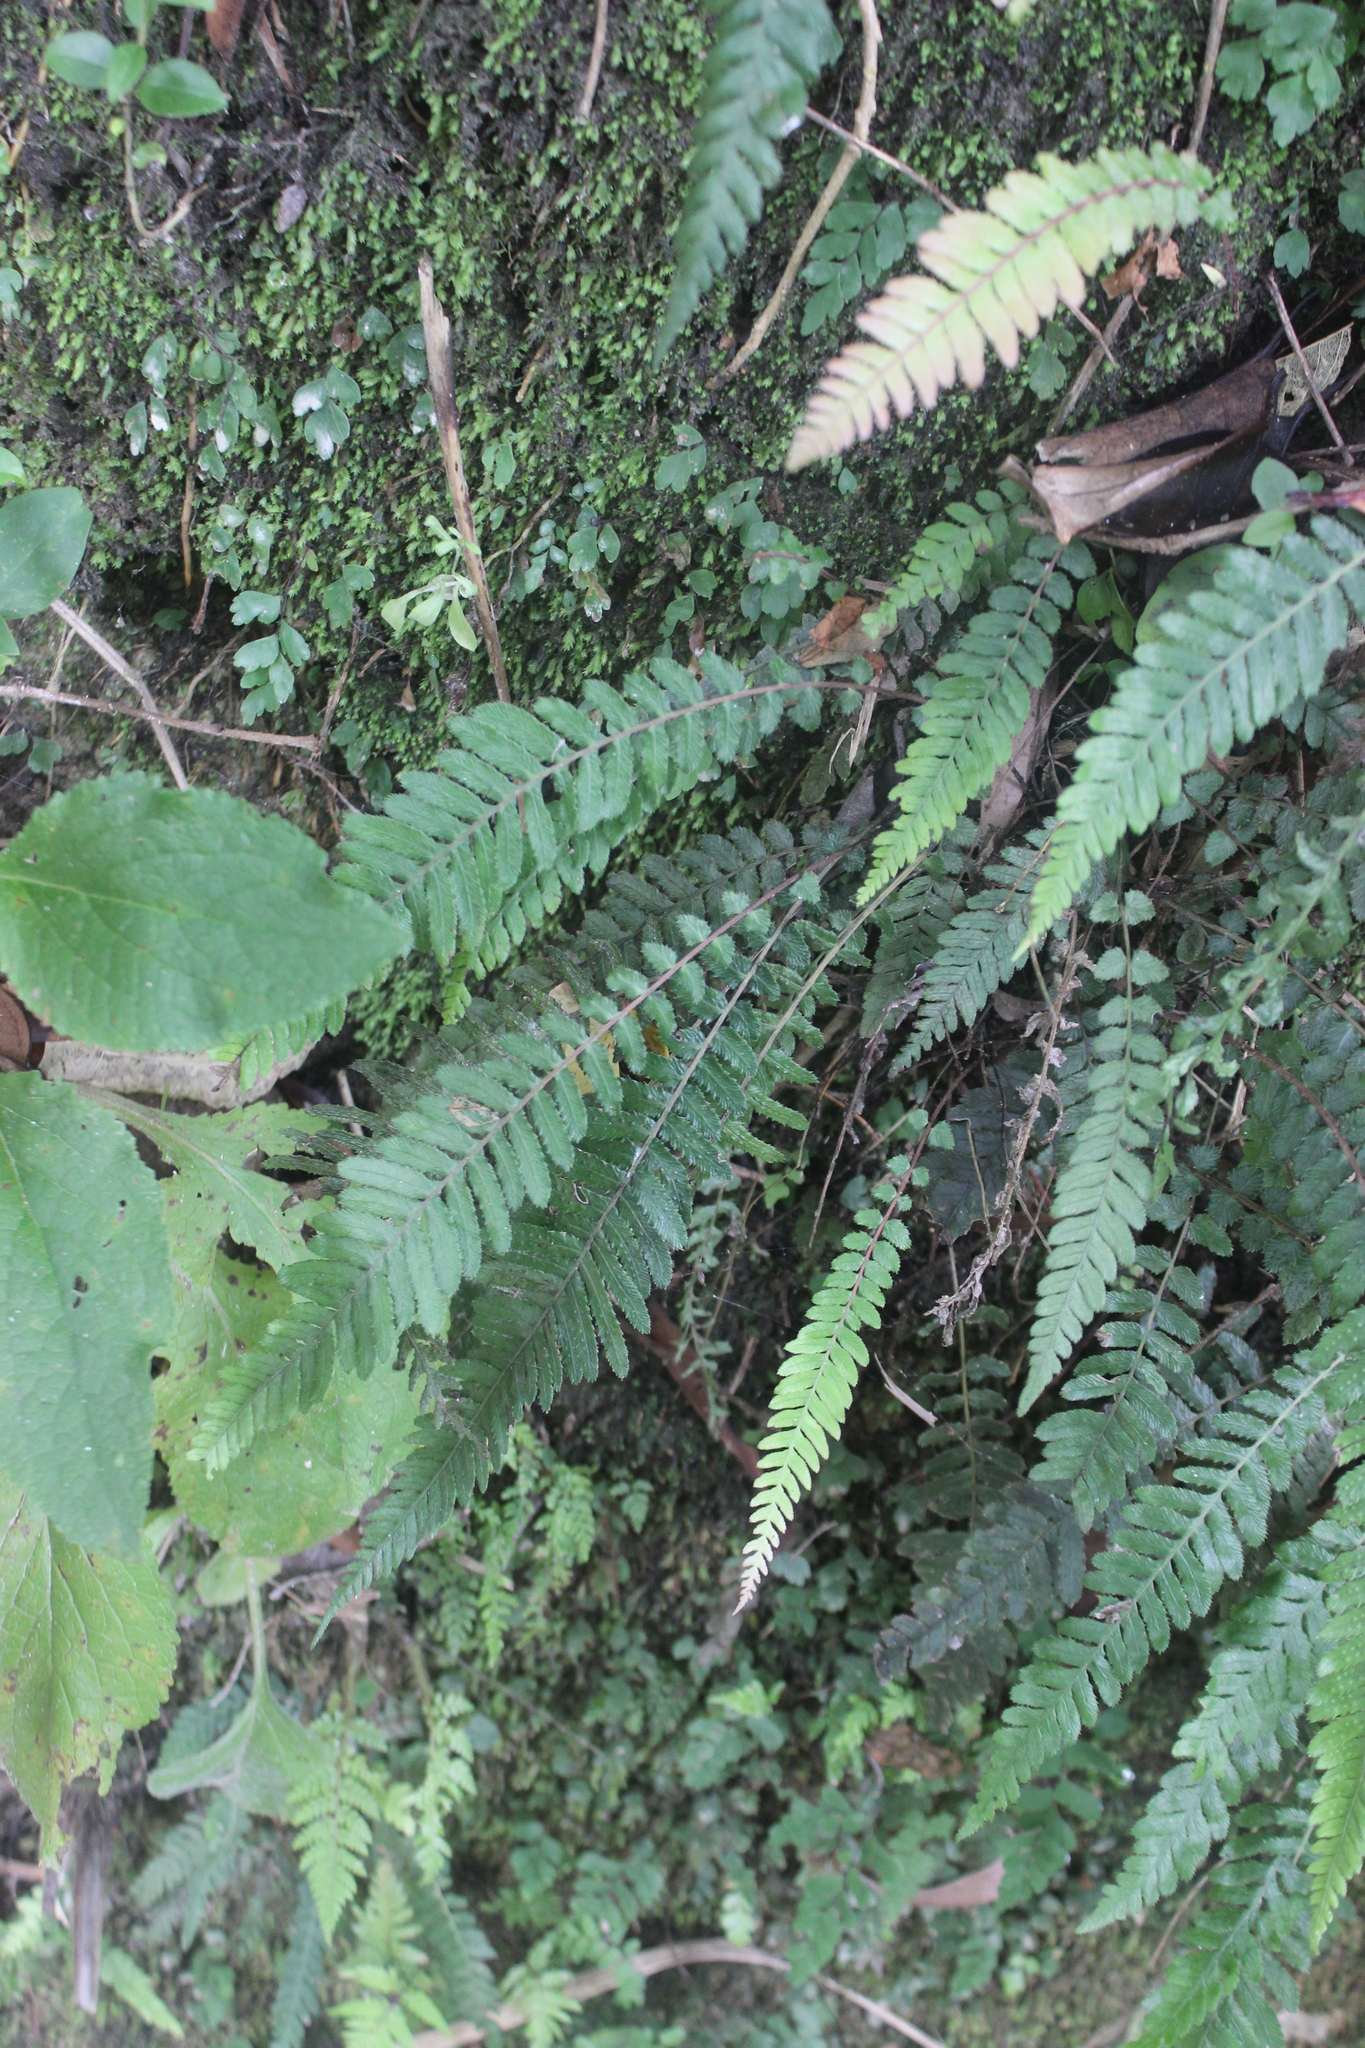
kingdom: Plantae
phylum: Tracheophyta
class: Polypodiopsida
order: Polypodiales
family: Blechnaceae
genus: Doodia
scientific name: Doodia australis
